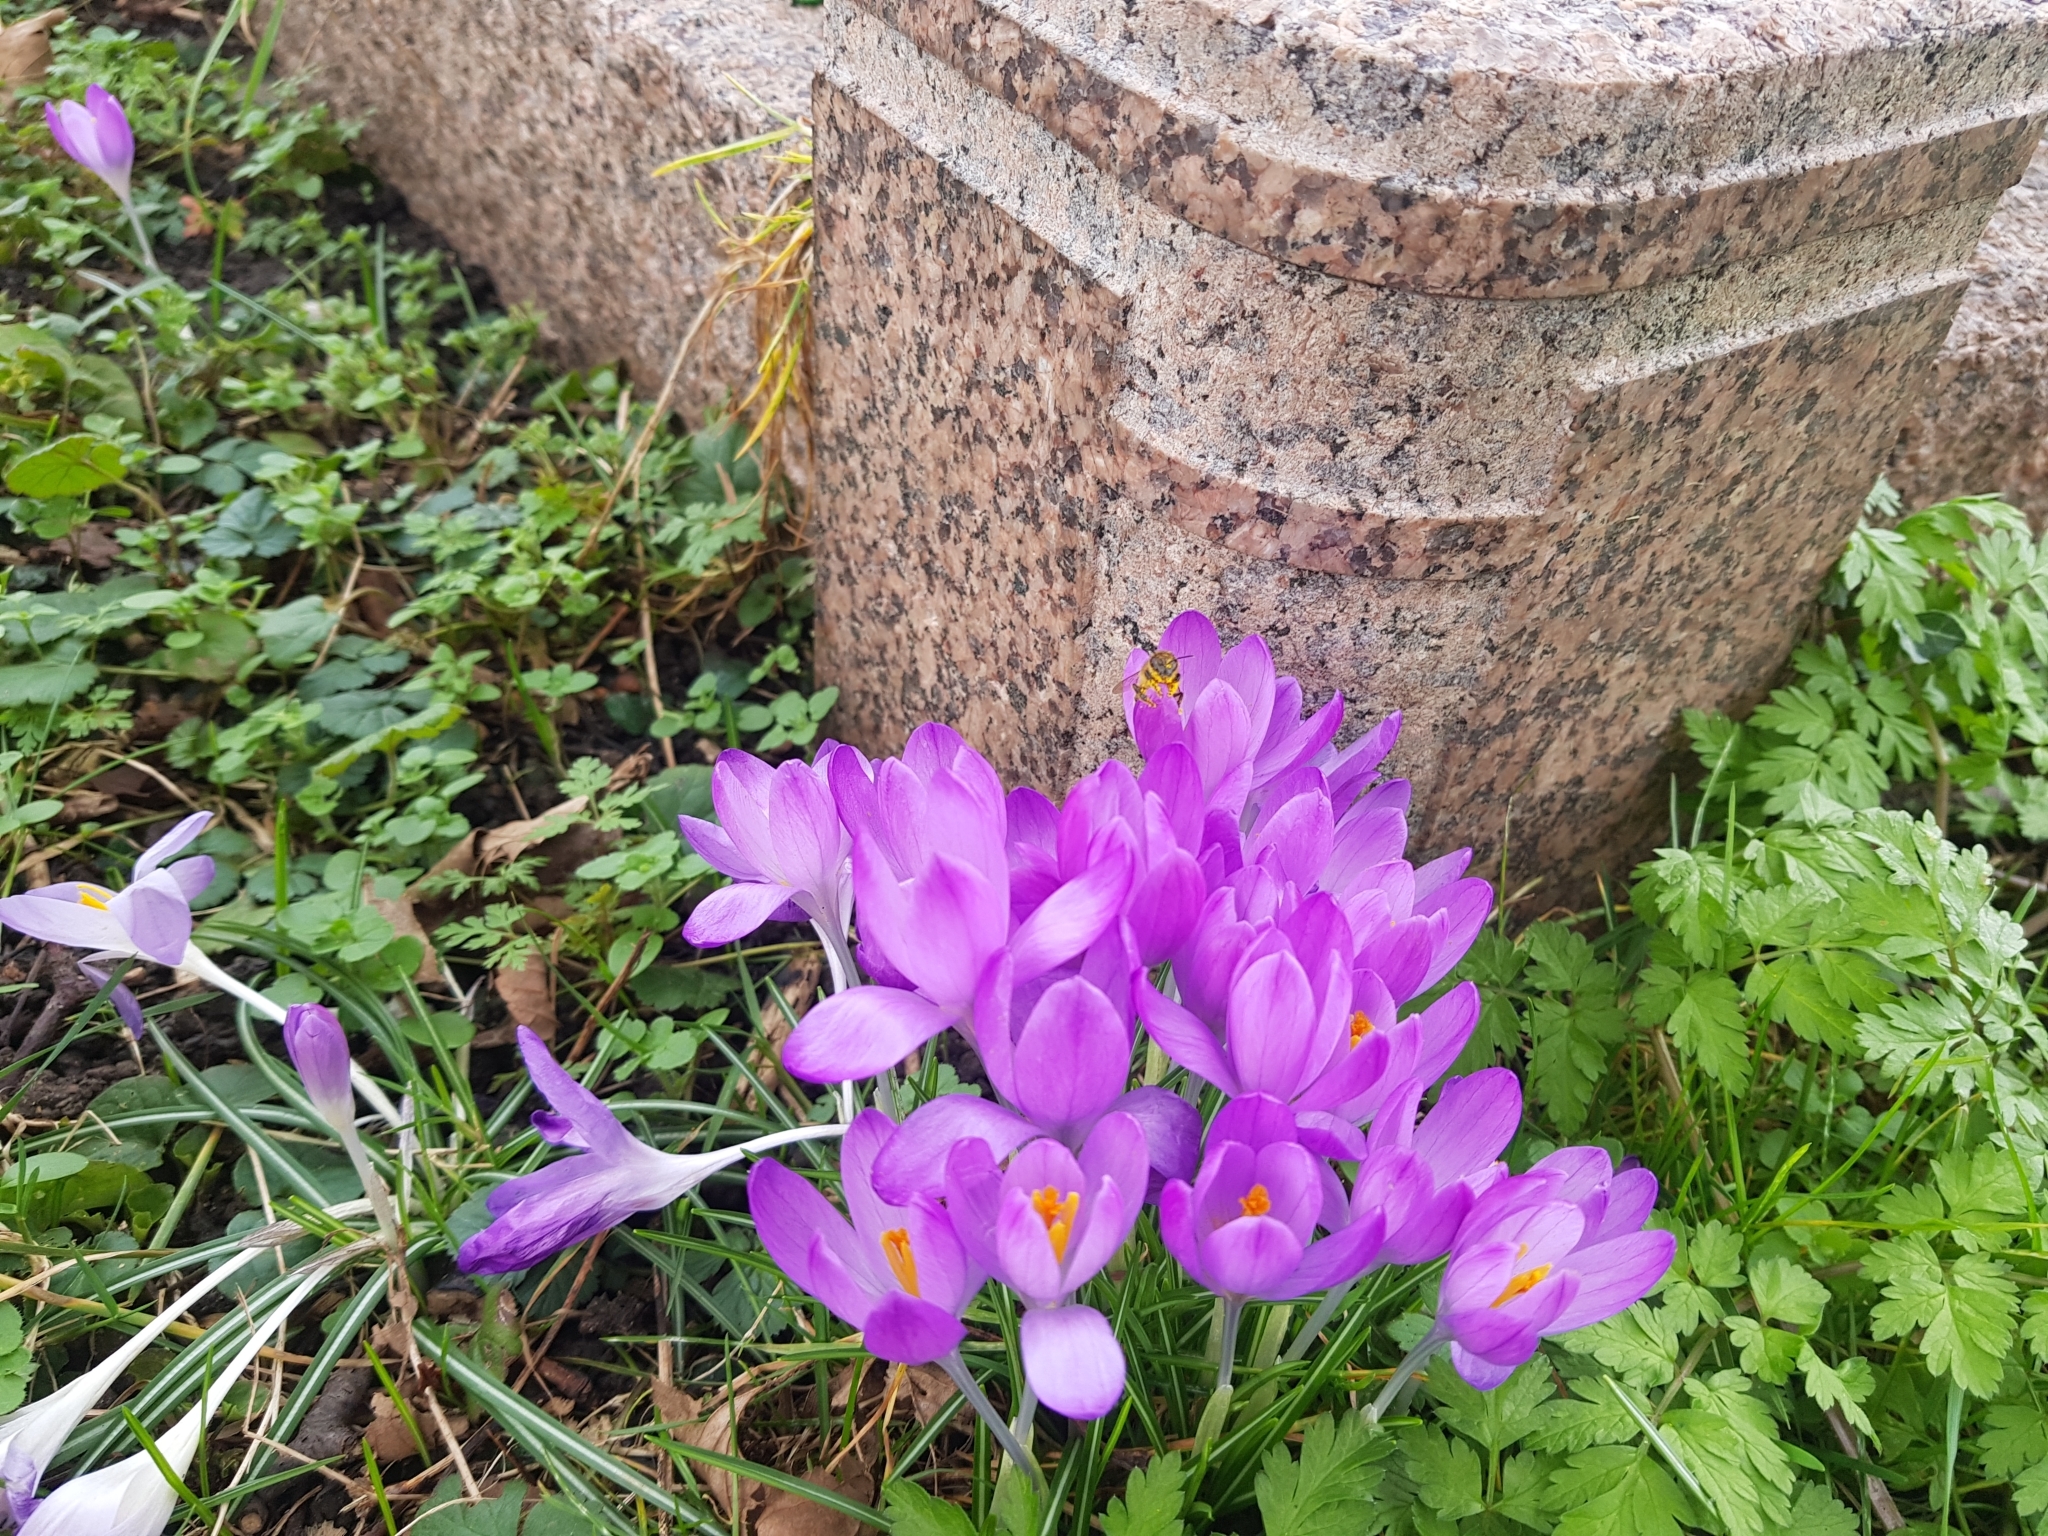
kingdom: Plantae
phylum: Tracheophyta
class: Liliopsida
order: Asparagales
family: Iridaceae
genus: Crocus
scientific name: Crocus tommasinianus
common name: Early crocus
